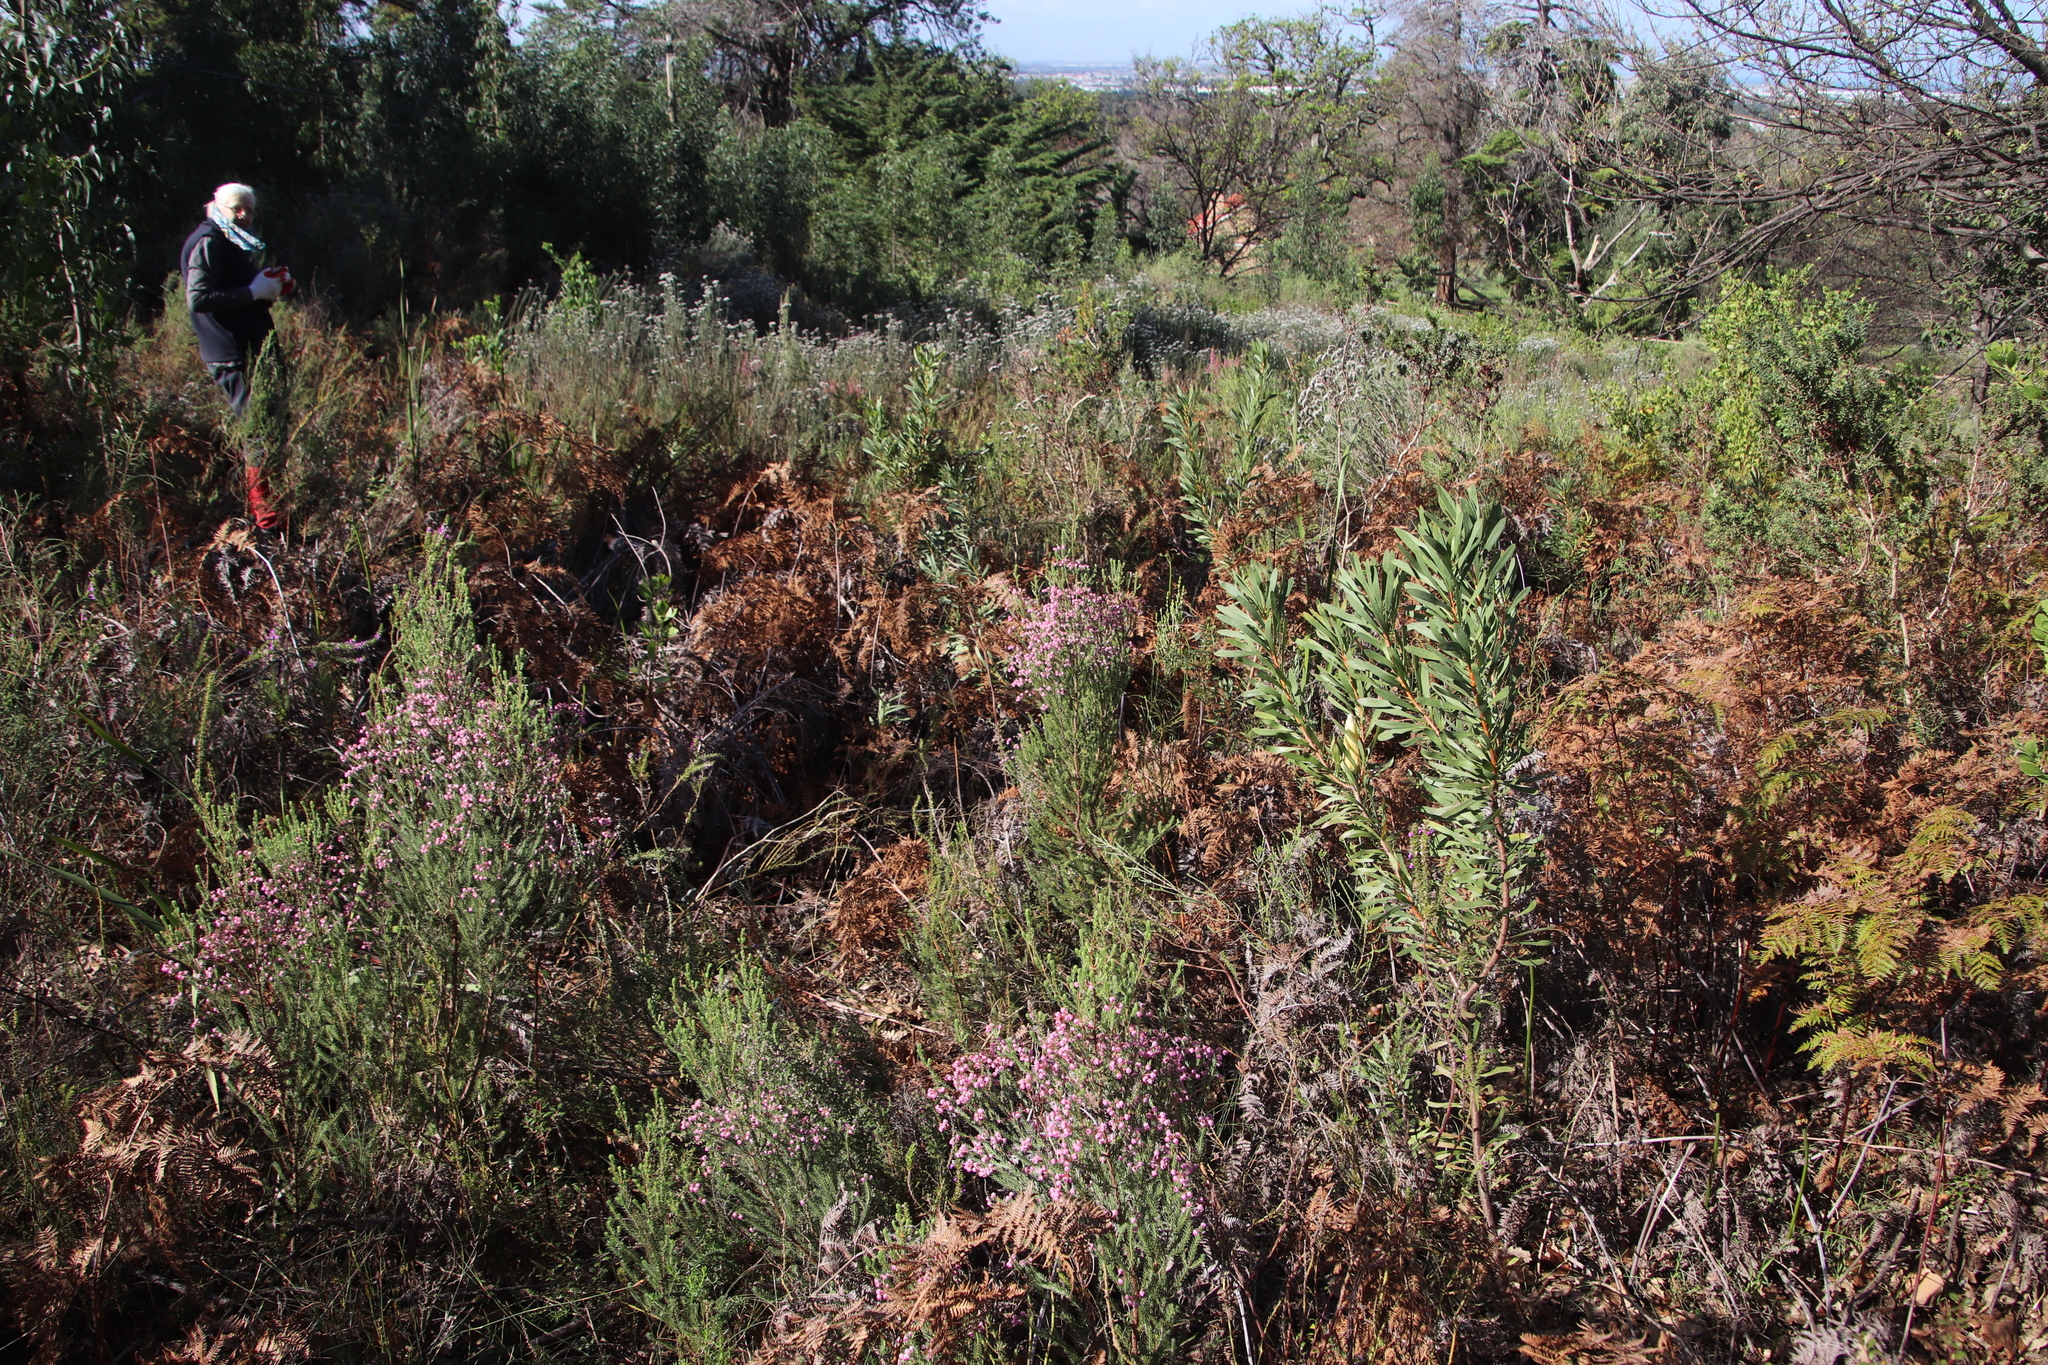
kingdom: Plantae
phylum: Tracheophyta
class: Magnoliopsida
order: Ericales
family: Ericaceae
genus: Erica
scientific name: Erica baccans
